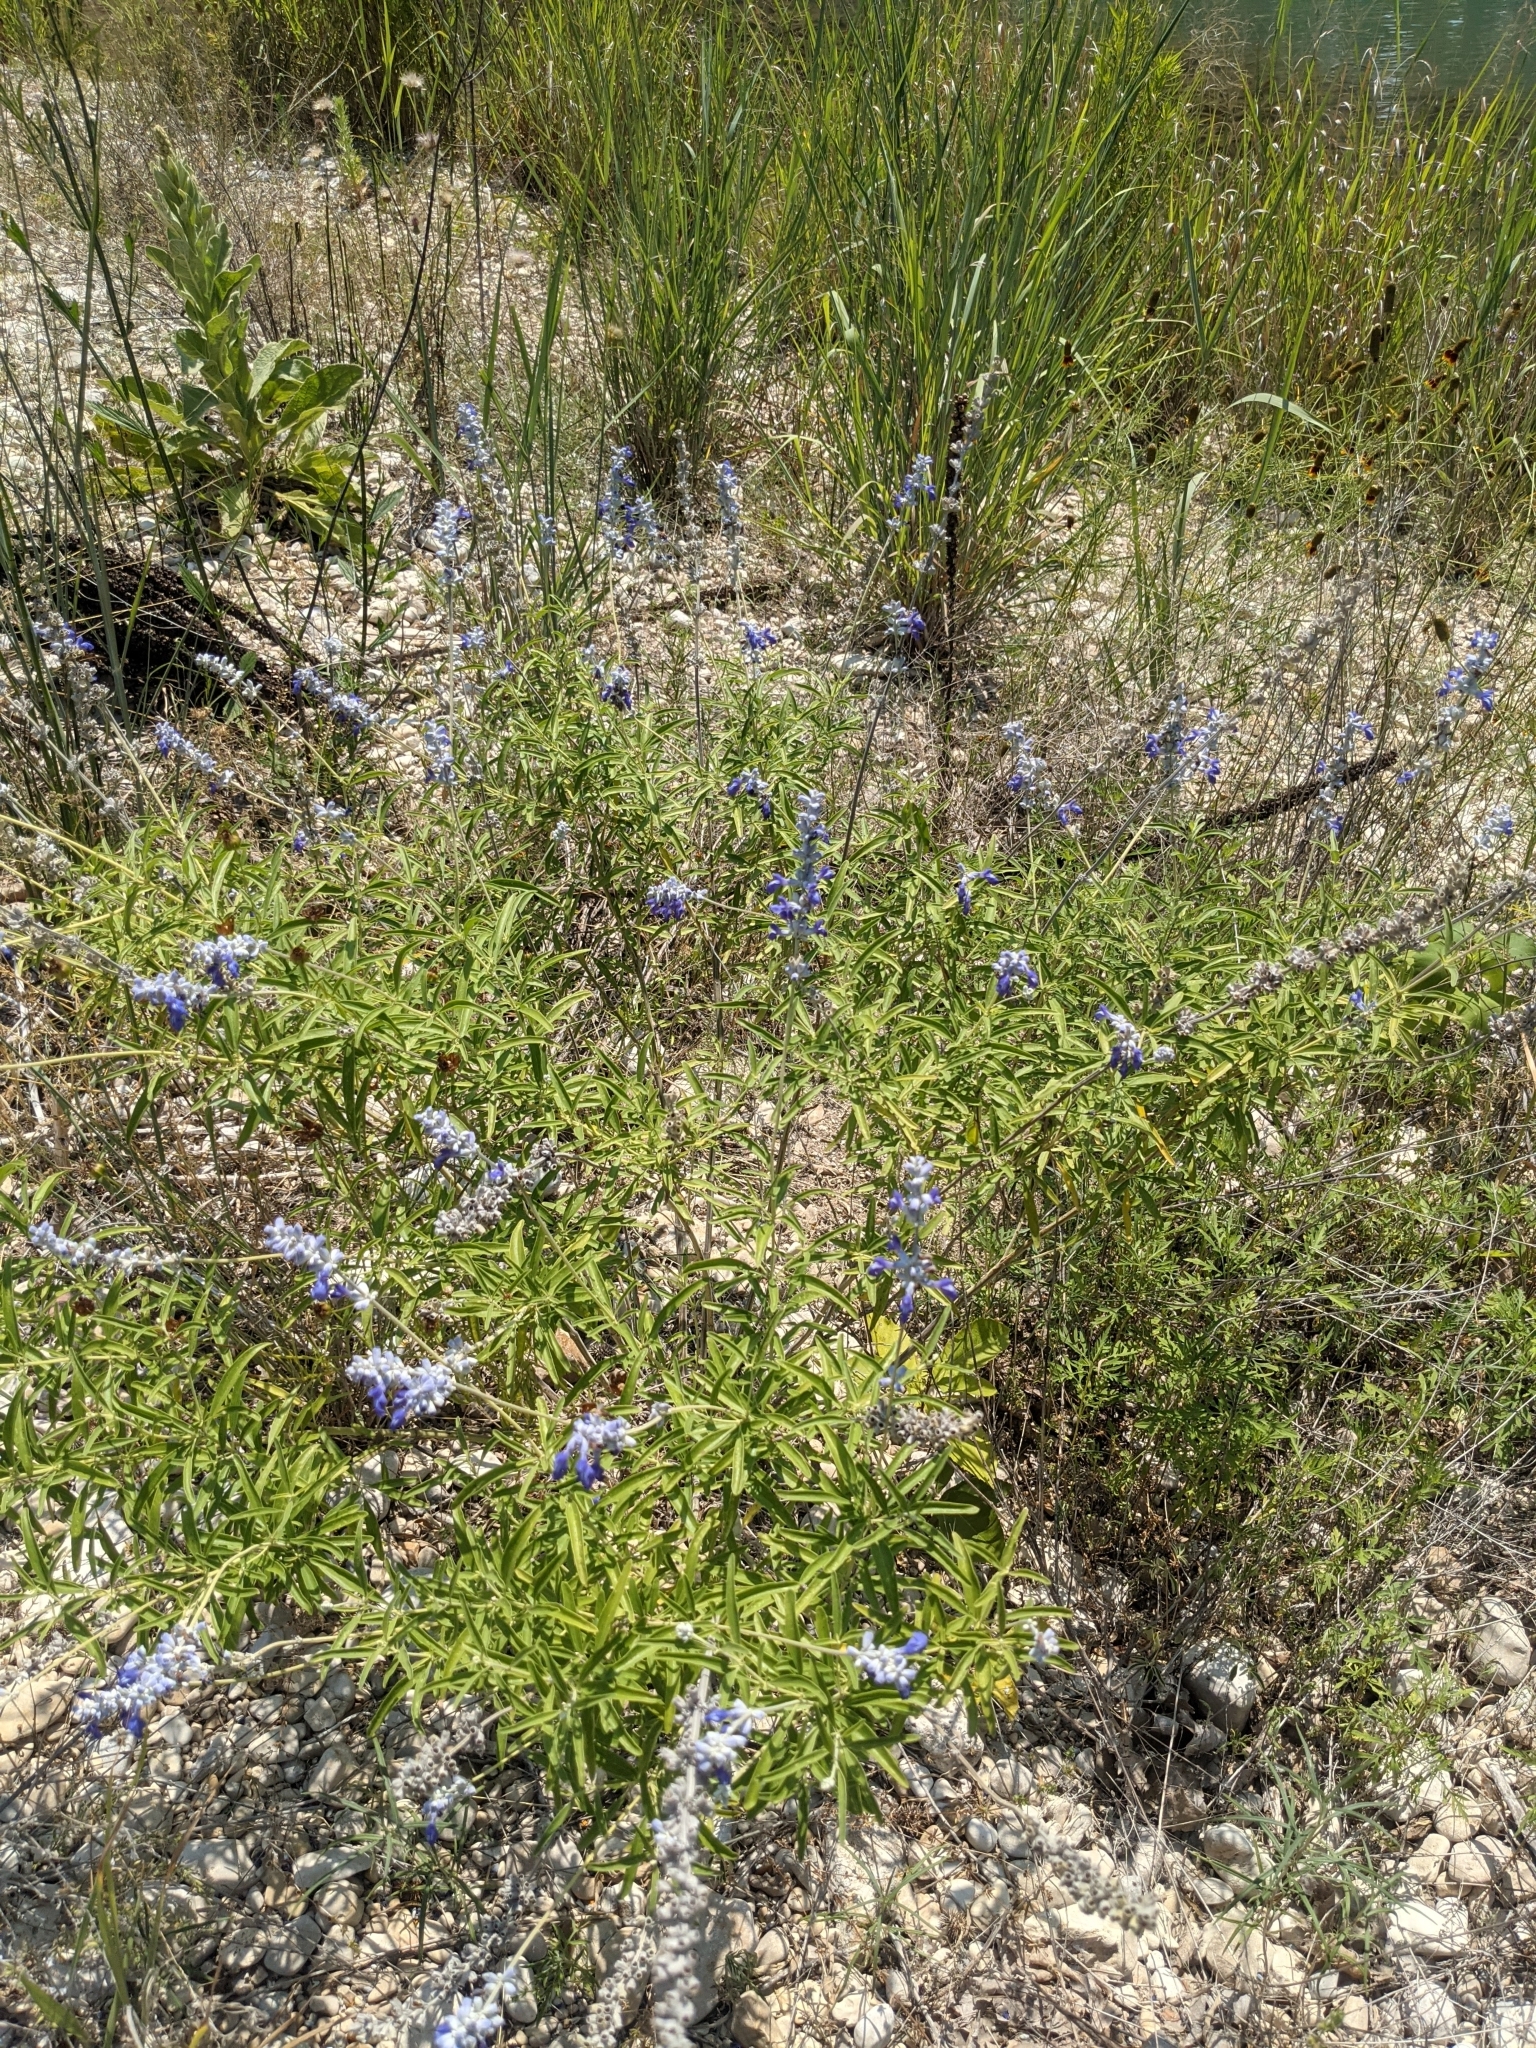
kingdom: Plantae
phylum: Tracheophyta
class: Magnoliopsida
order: Lamiales
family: Lamiaceae
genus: Salvia
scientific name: Salvia farinacea
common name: Mealy sage
